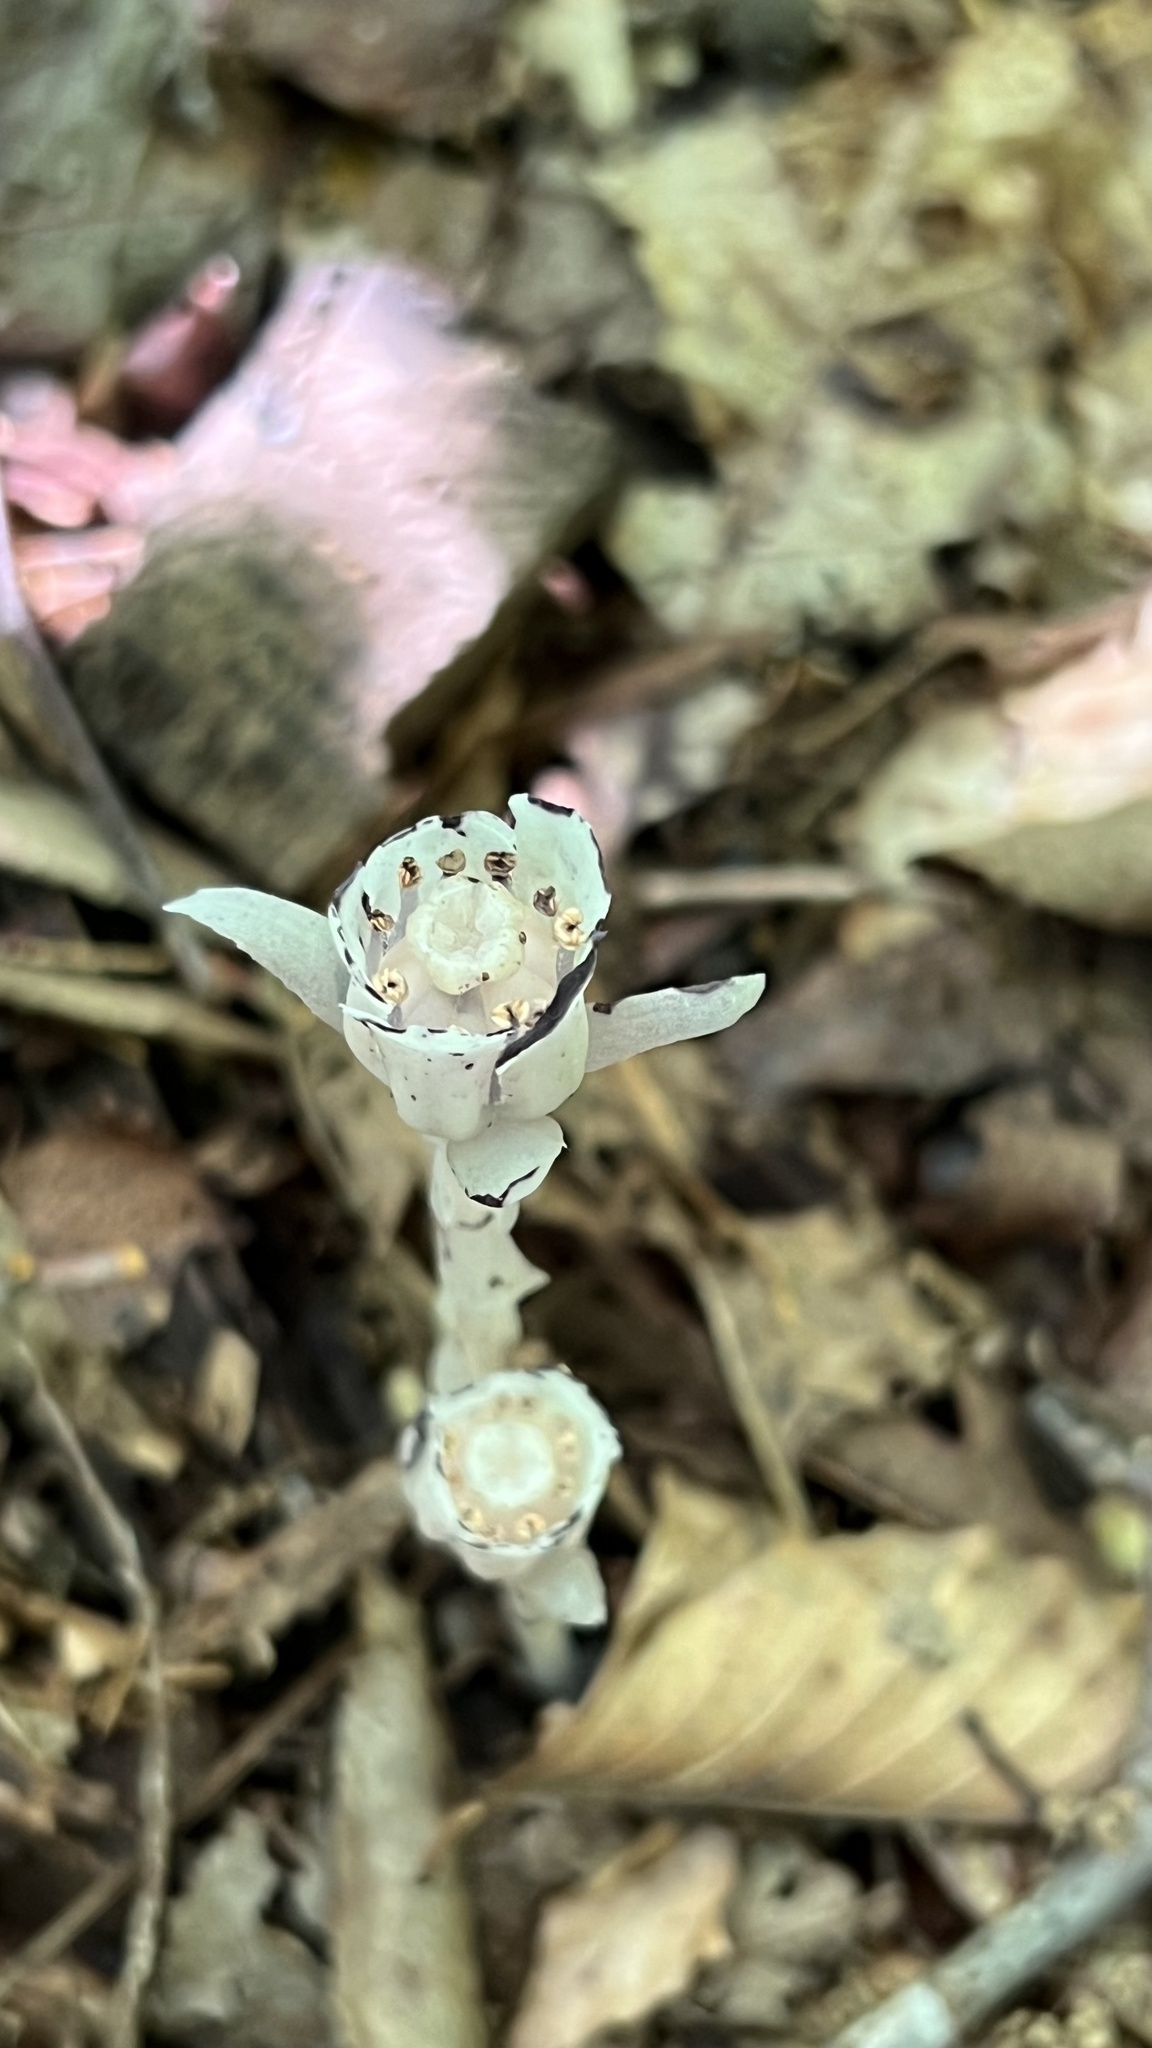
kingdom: Plantae
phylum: Tracheophyta
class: Magnoliopsida
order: Ericales
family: Ericaceae
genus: Monotropa
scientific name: Monotropa uniflora
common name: Convulsion root
